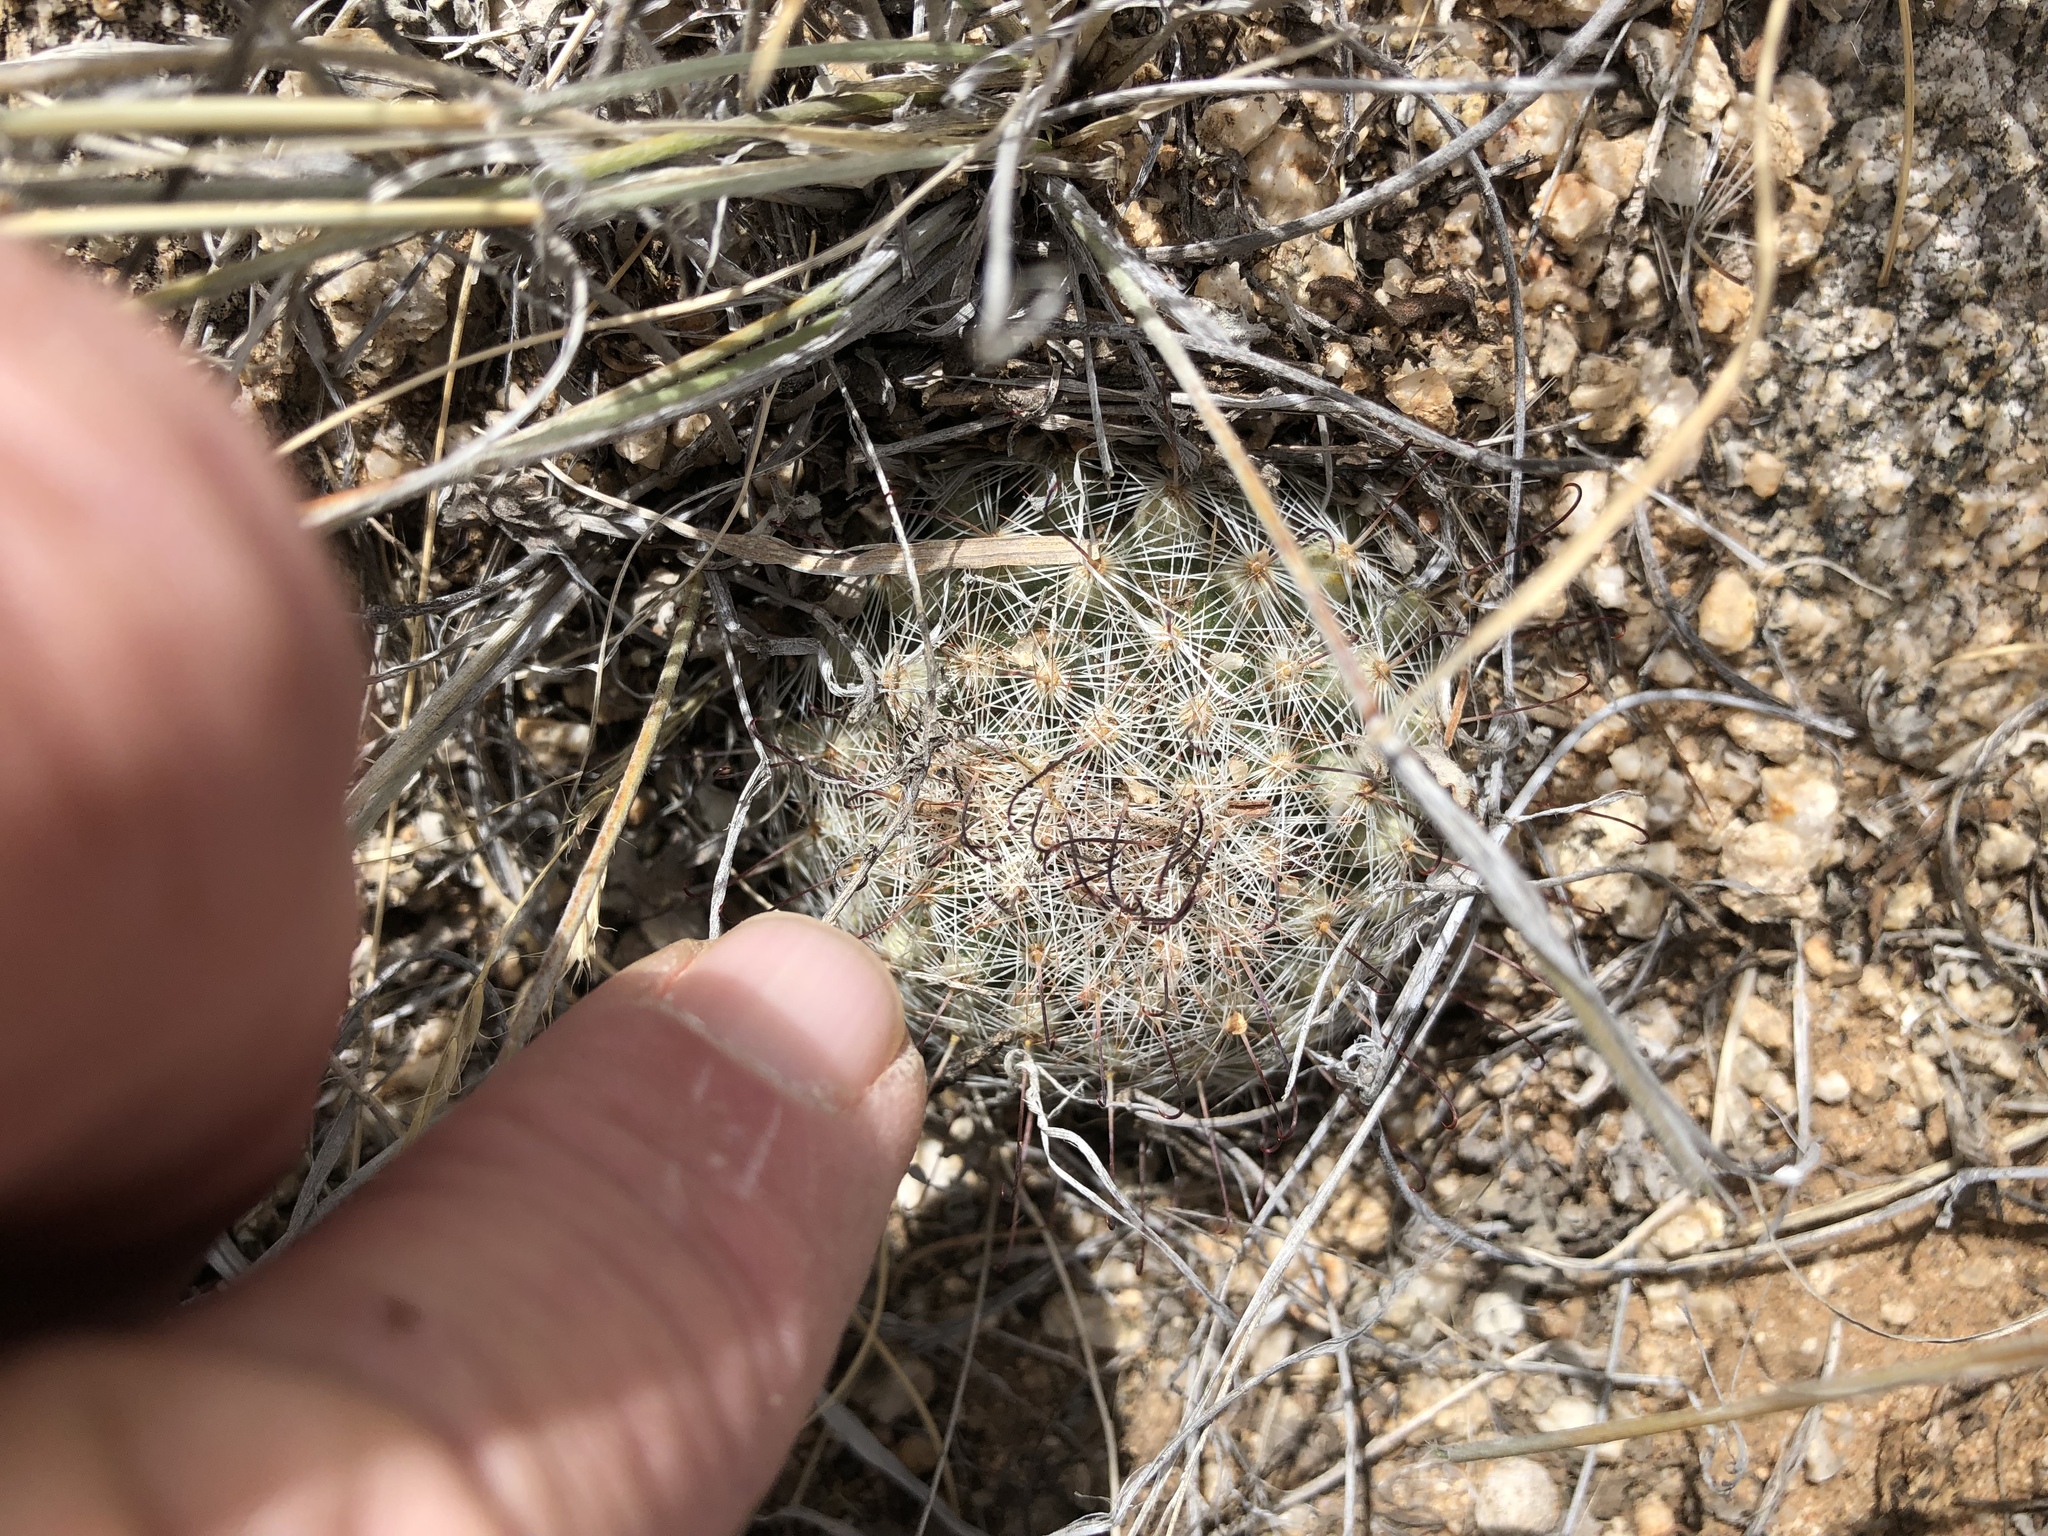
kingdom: Plantae
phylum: Tracheophyta
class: Magnoliopsida
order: Caryophyllales
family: Cactaceae
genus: Cochemiea
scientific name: Cochemiea grahamii
